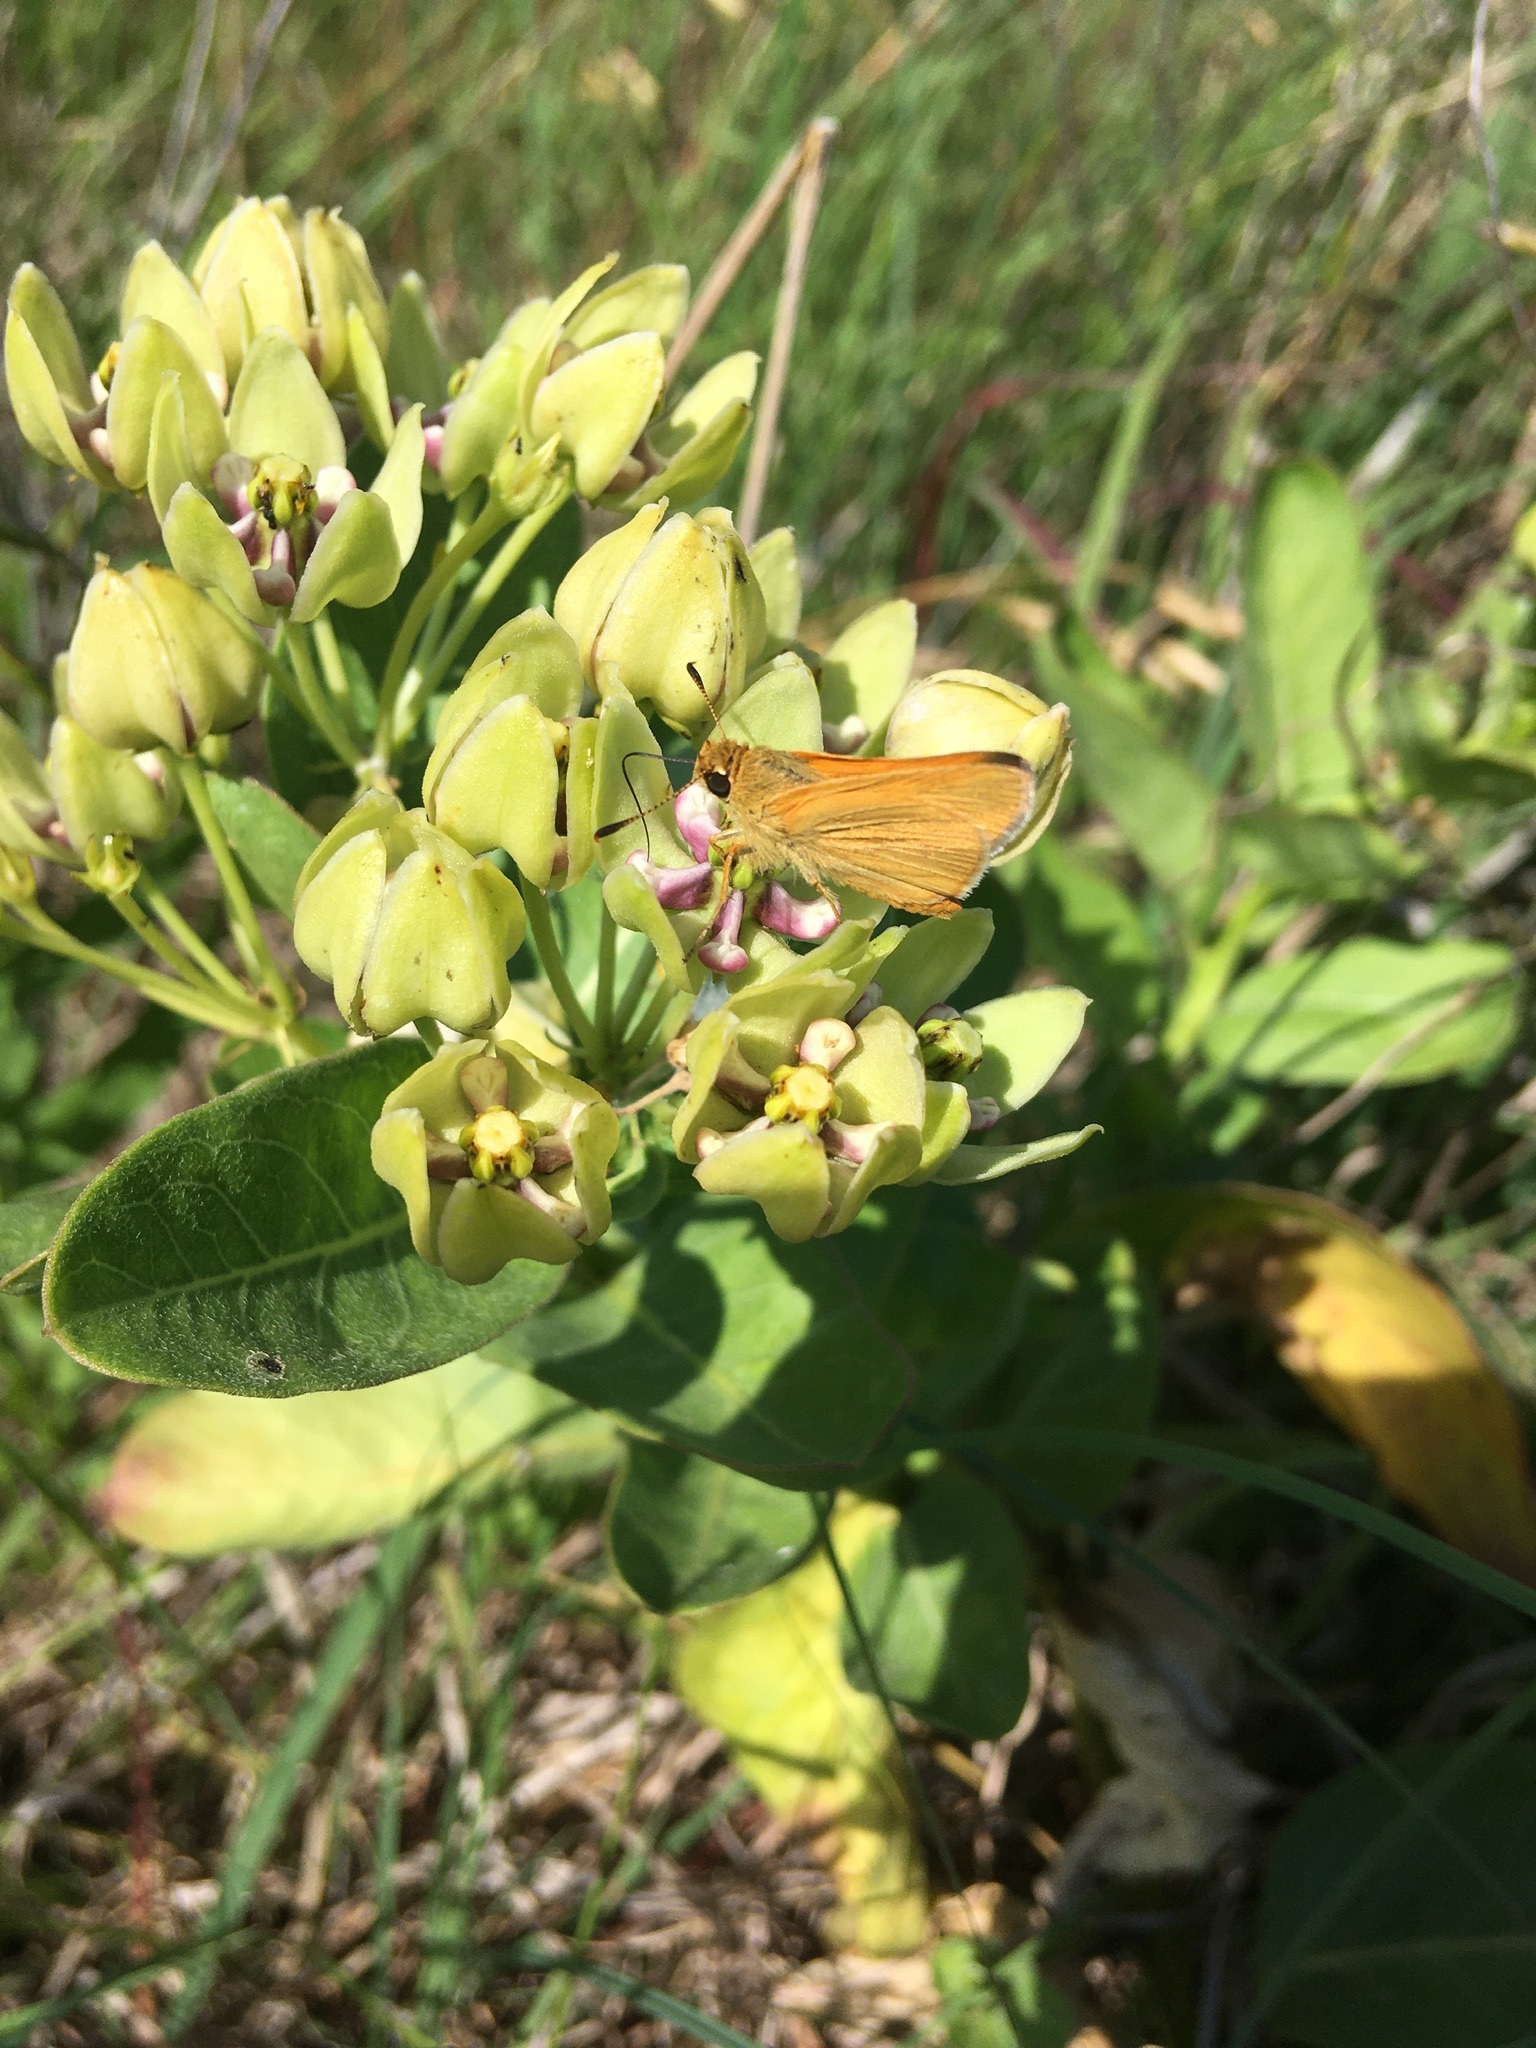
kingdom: Animalia
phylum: Arthropoda
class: Insecta
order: Lepidoptera
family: Hesperiidae
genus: Atrytone
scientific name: Atrytone delaware
